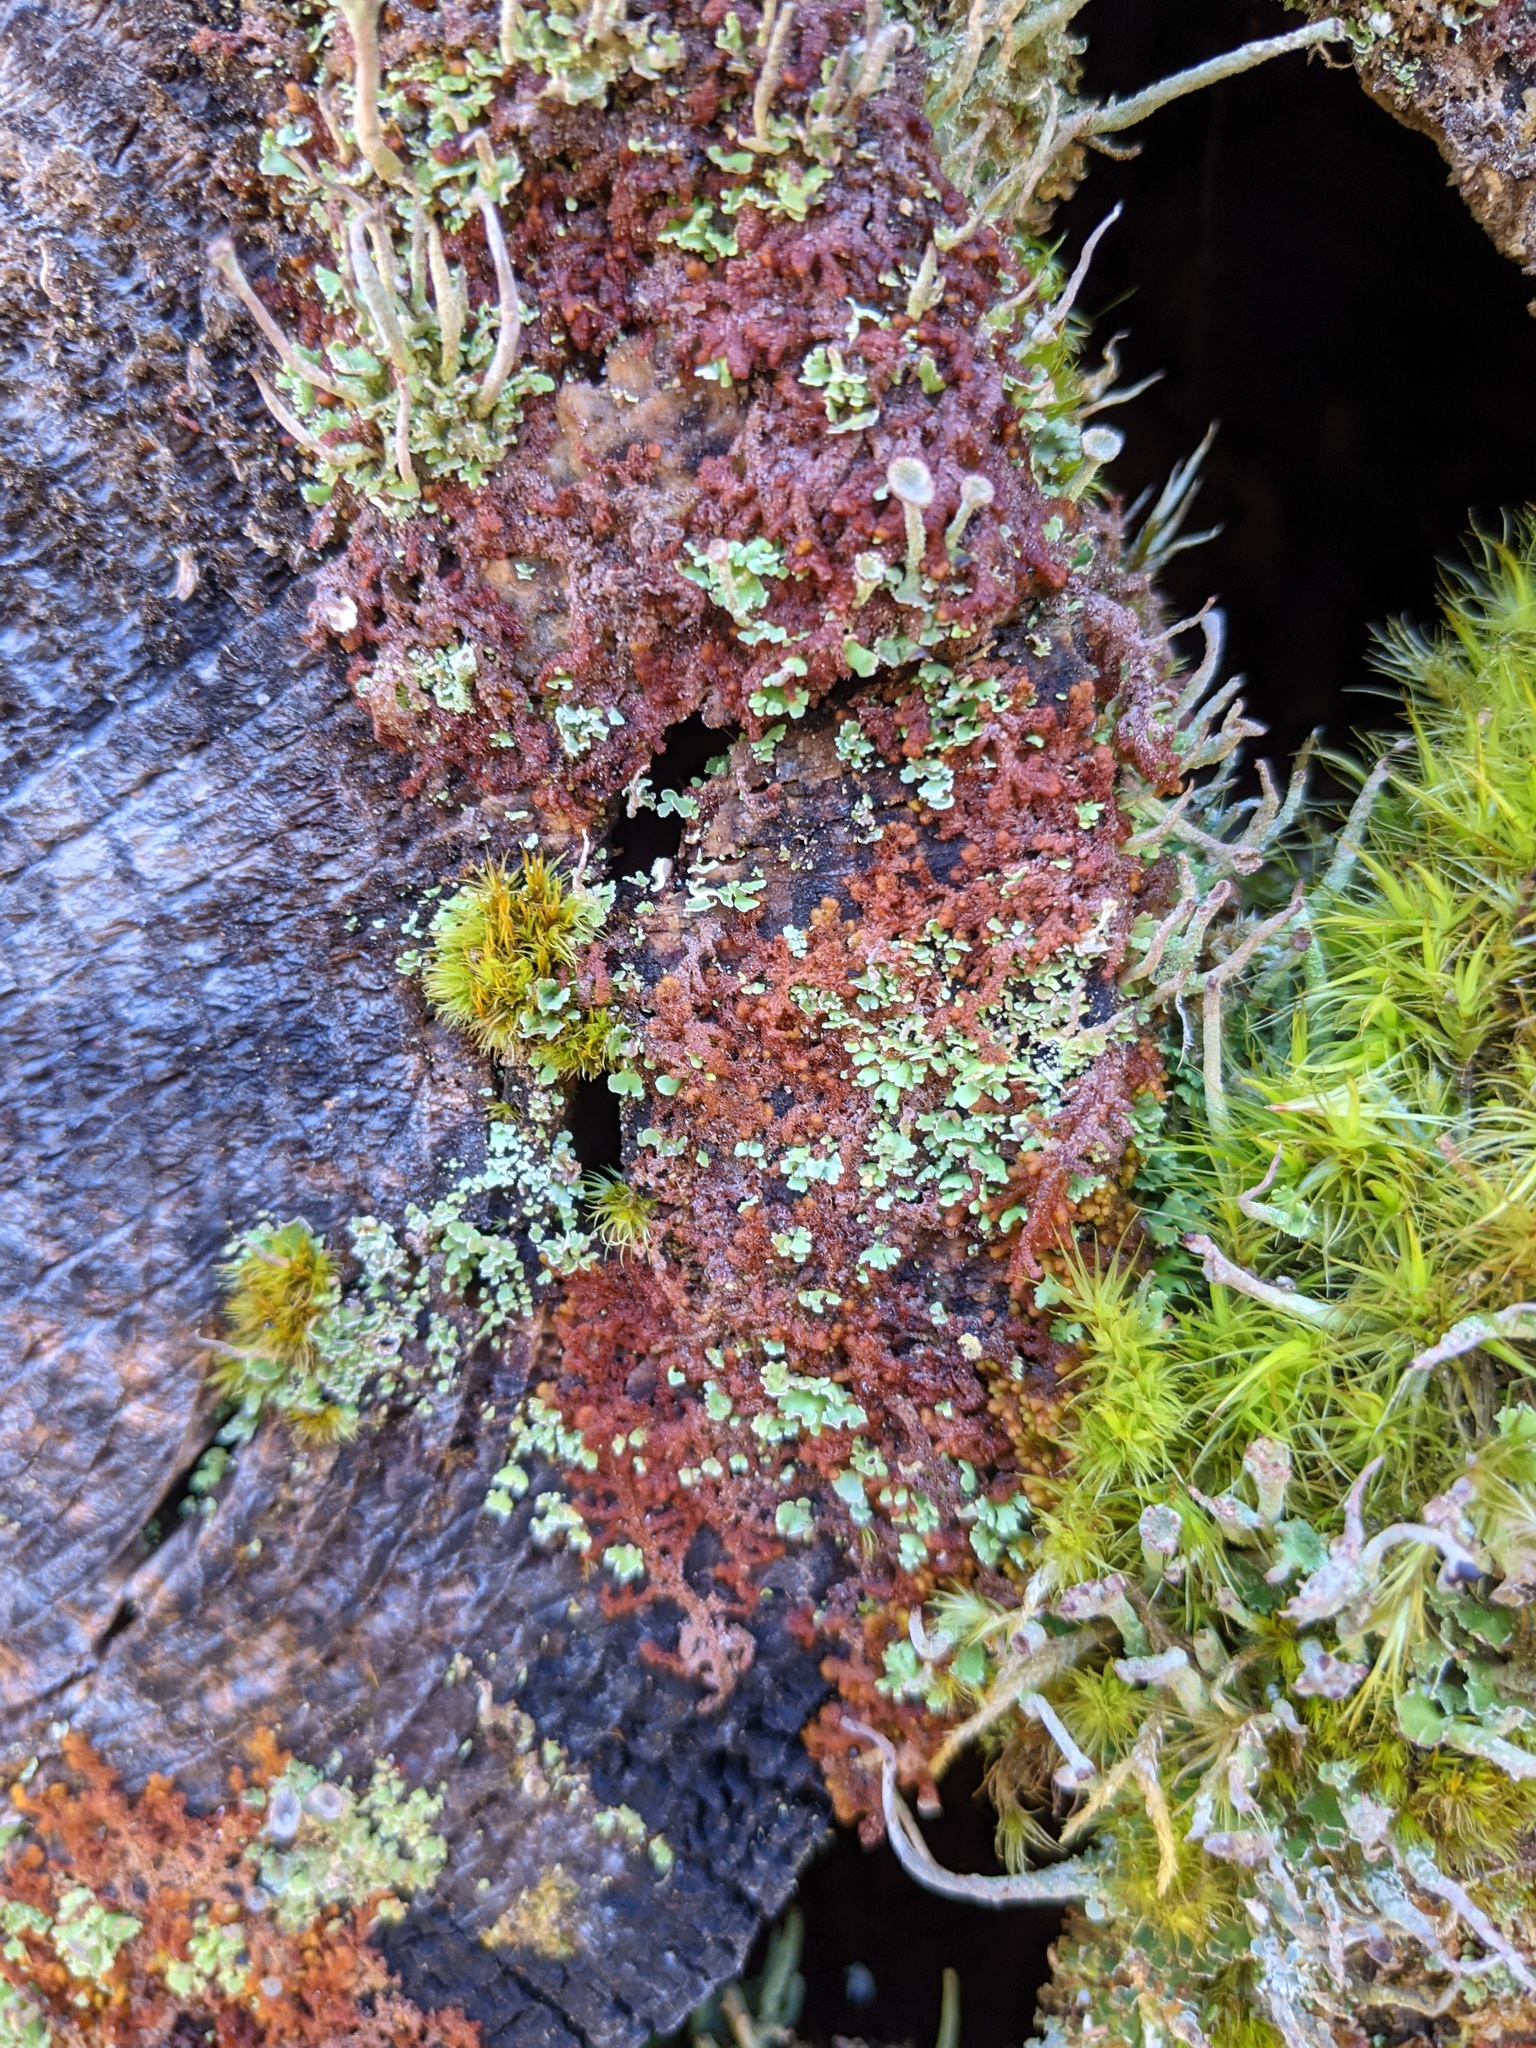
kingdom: Plantae
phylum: Marchantiophyta
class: Jungermanniopsida
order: Ptilidiales
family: Ptilidiaceae
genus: Ptilidium
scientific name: Ptilidium pulcherrimum
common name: Tree fringewort
